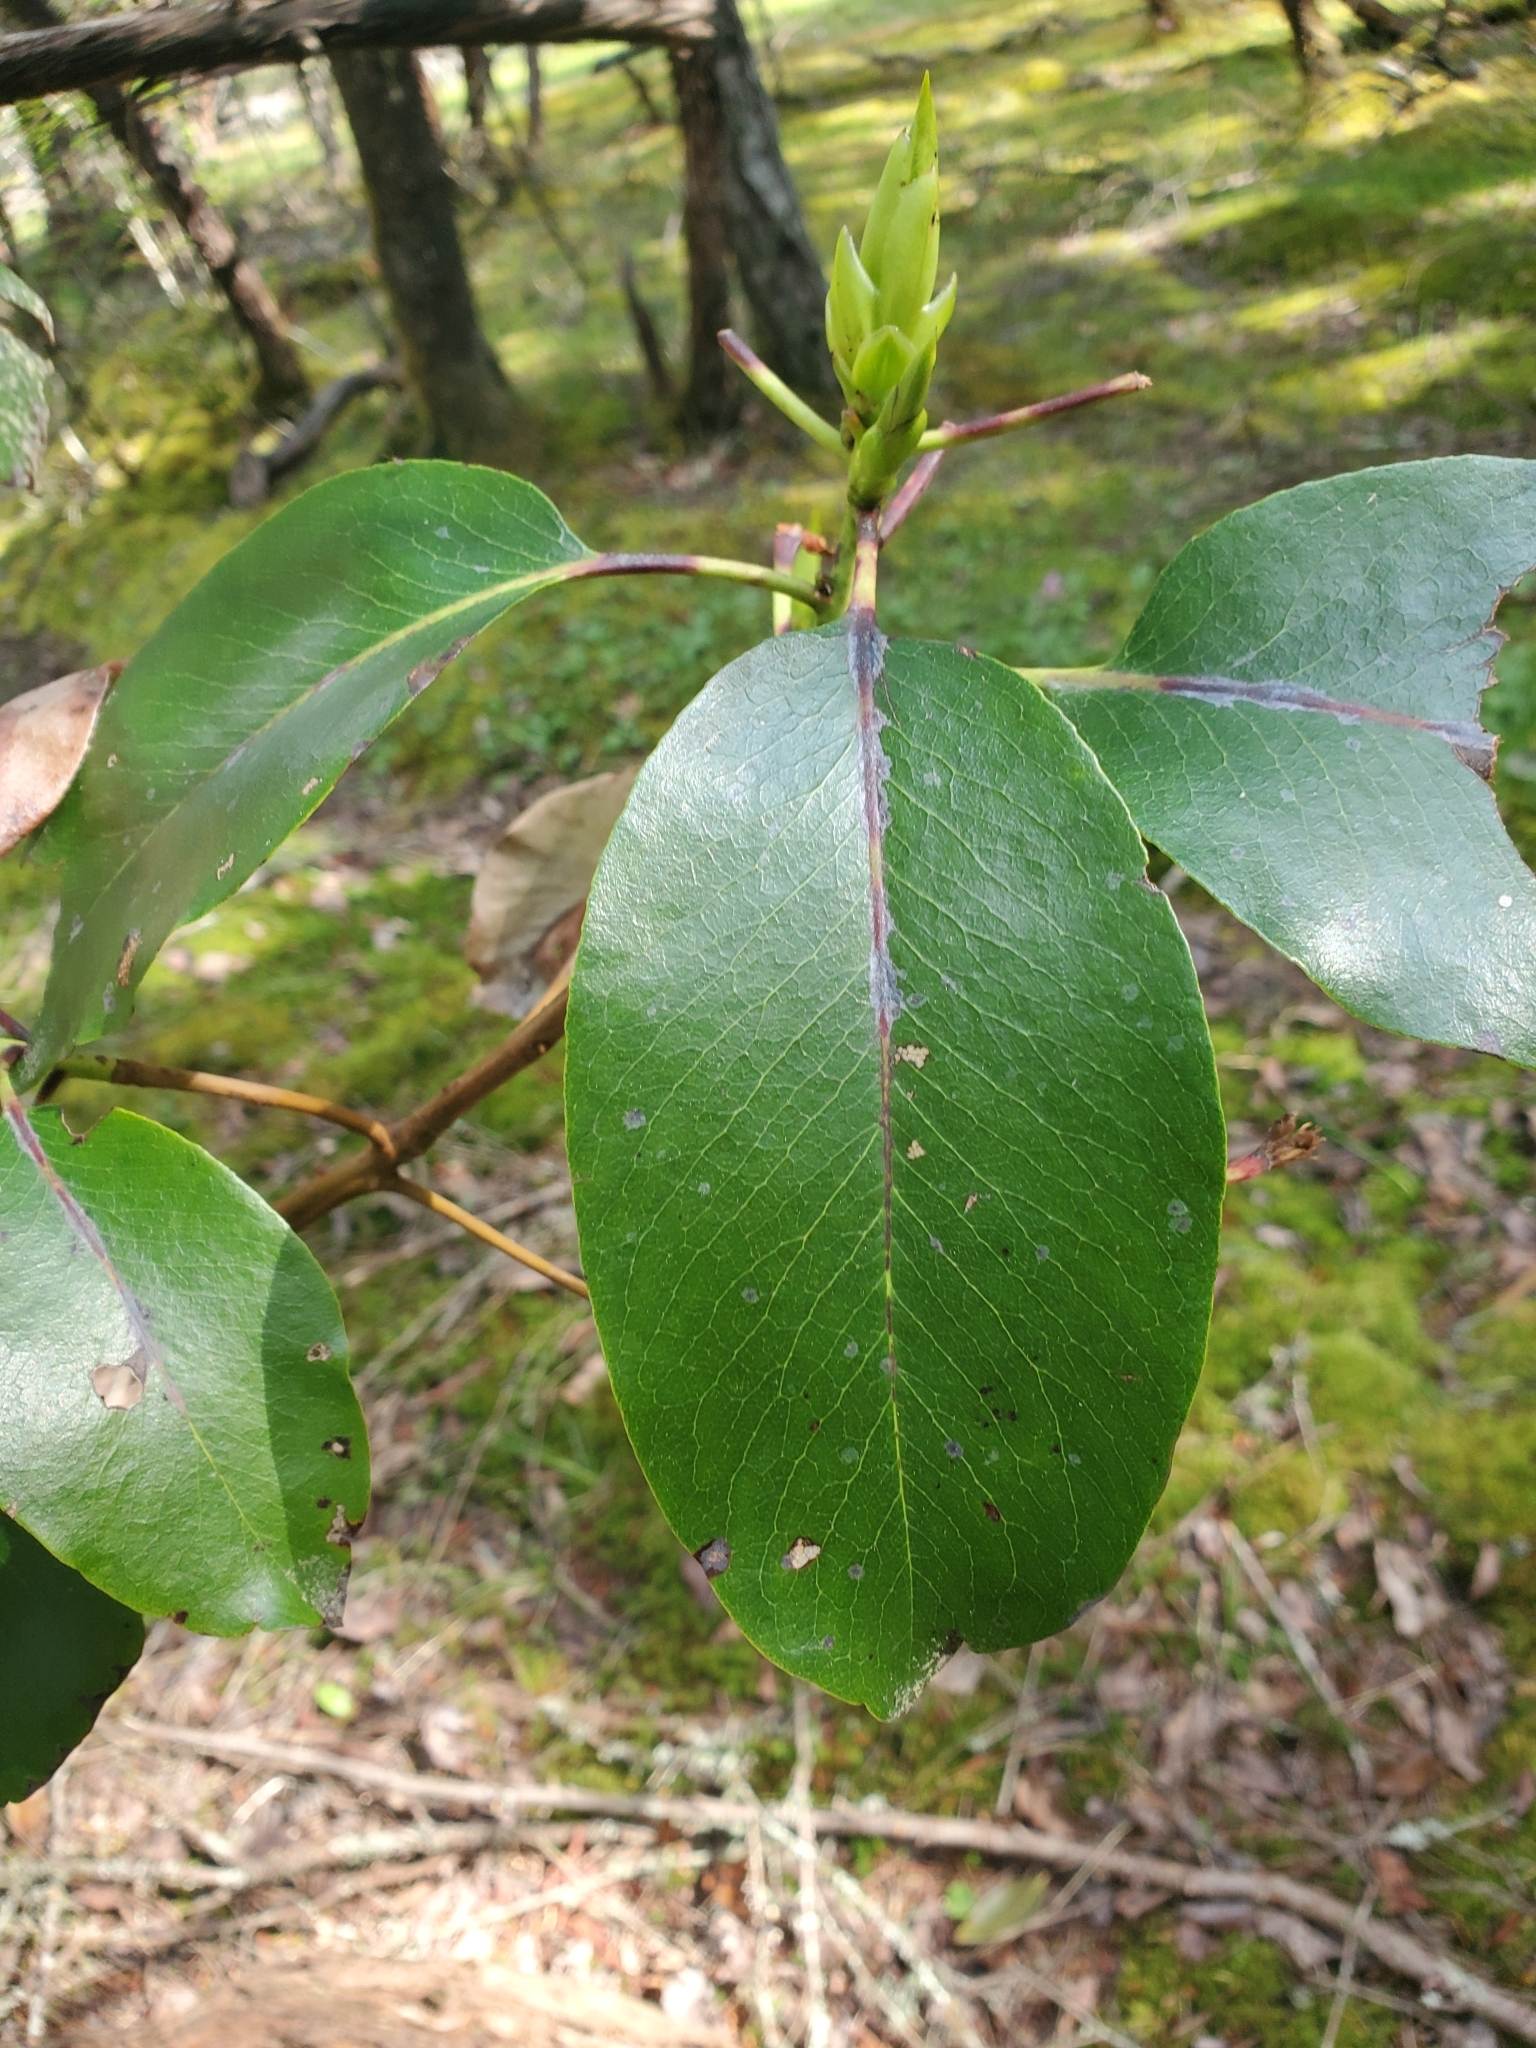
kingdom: Plantae
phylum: Tracheophyta
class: Magnoliopsida
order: Ericales
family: Ericaceae
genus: Arbutus
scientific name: Arbutus menziesii
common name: Pacific madrone
